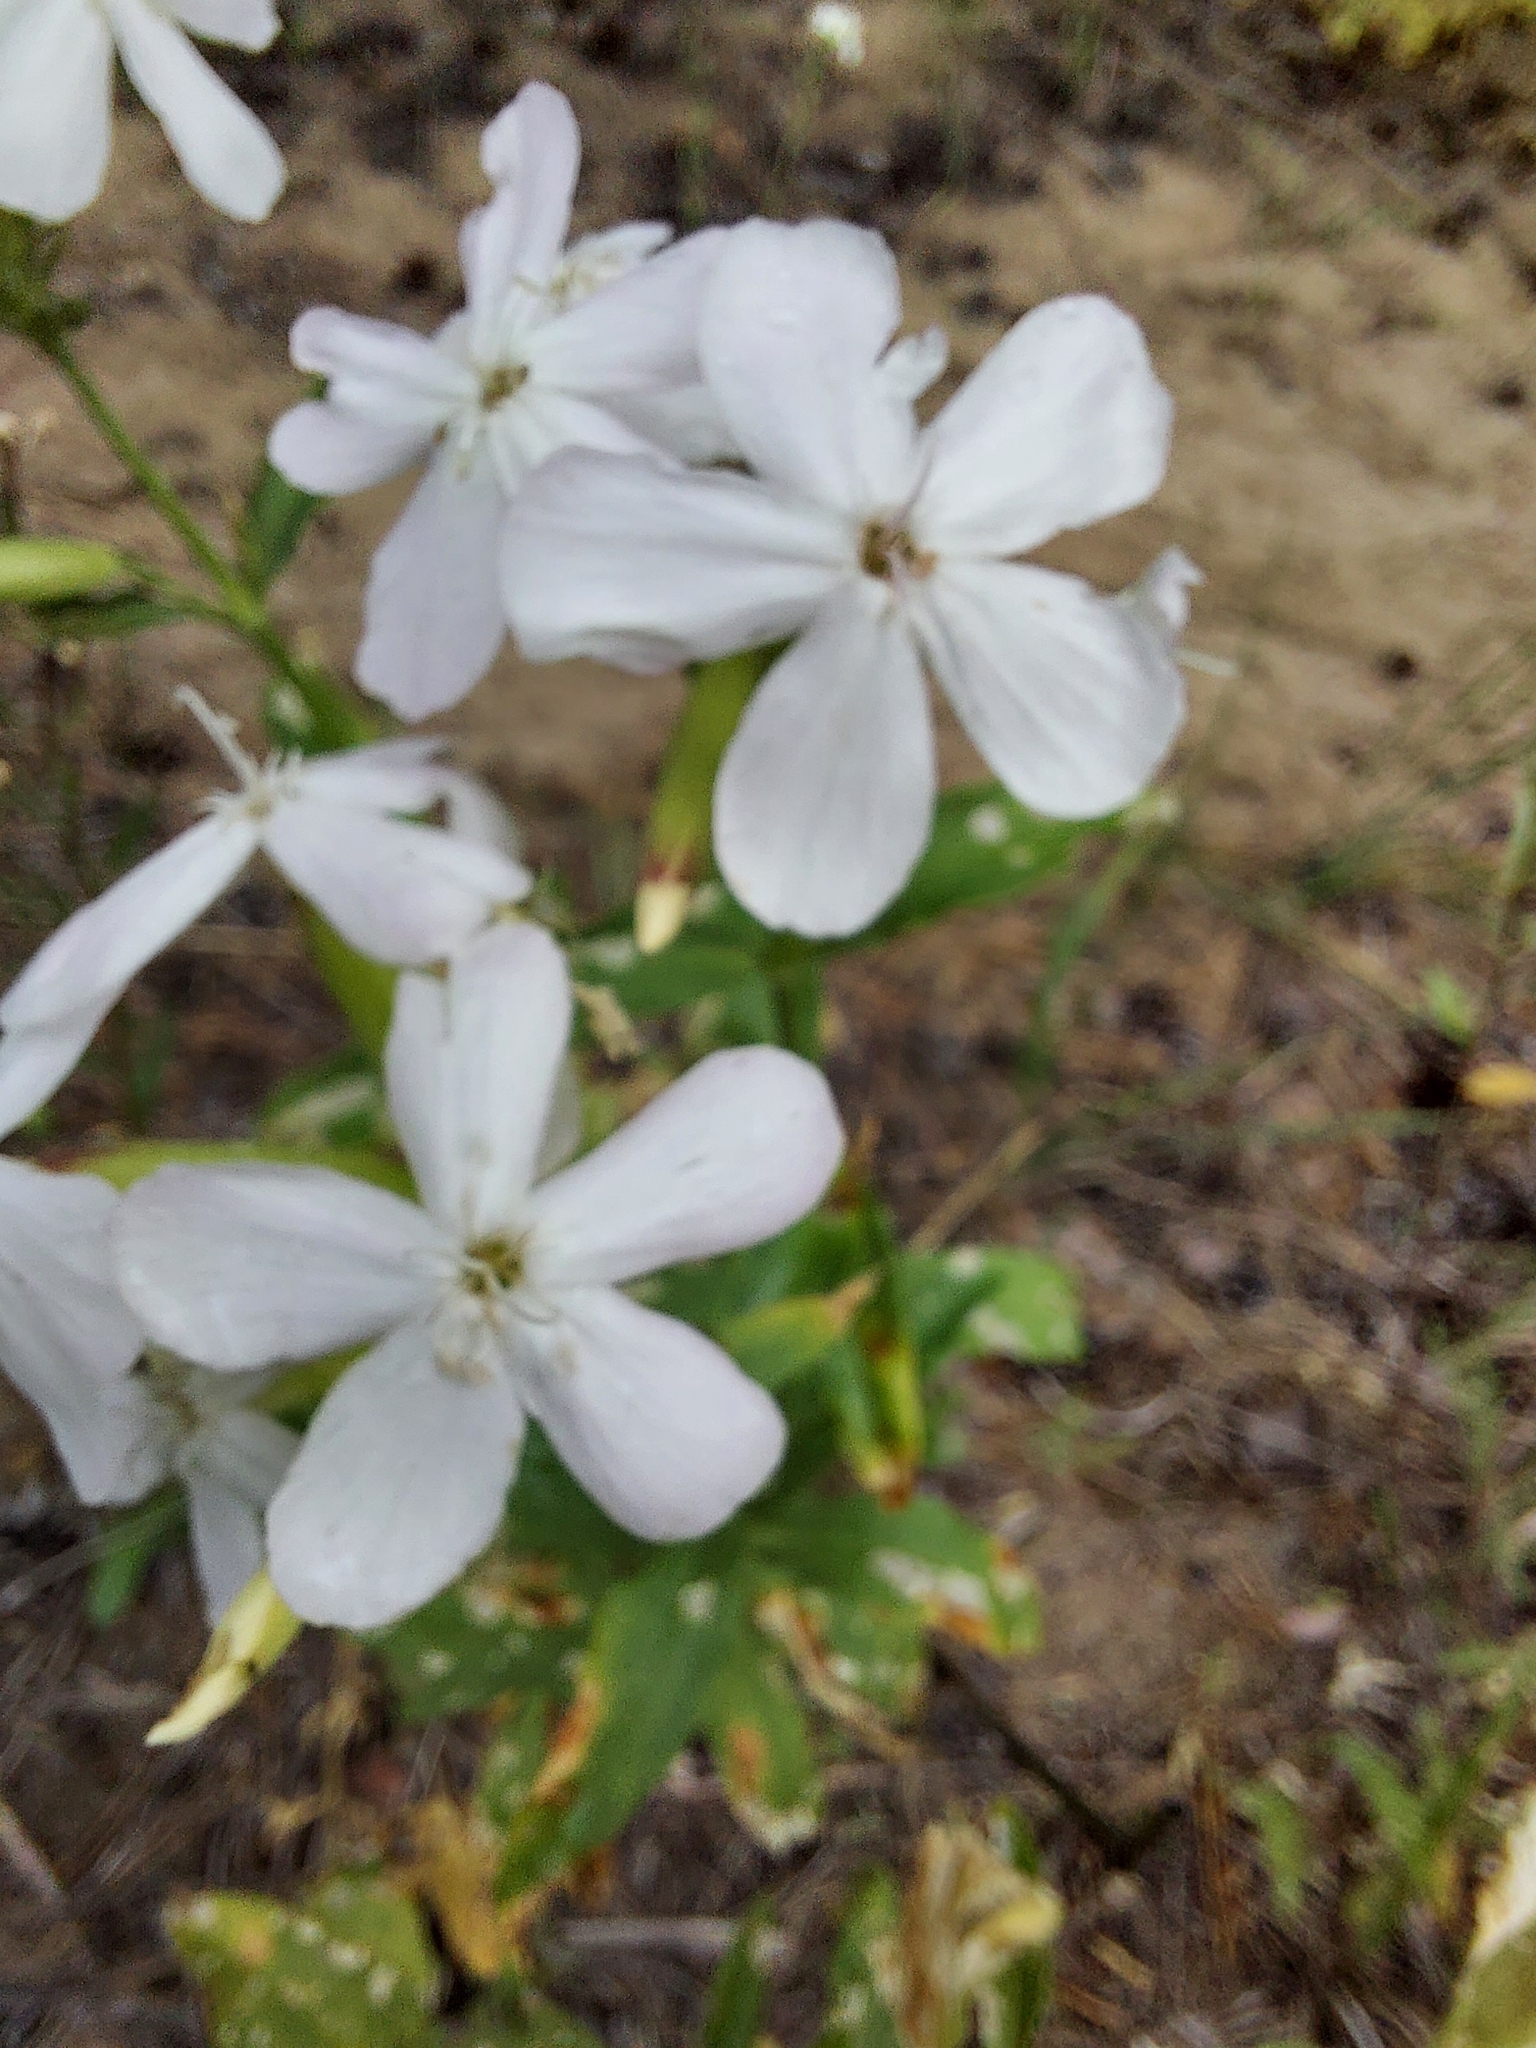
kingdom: Plantae
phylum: Tracheophyta
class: Magnoliopsida
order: Caryophyllales
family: Caryophyllaceae
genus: Saponaria
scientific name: Saponaria officinalis
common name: Soapwort
